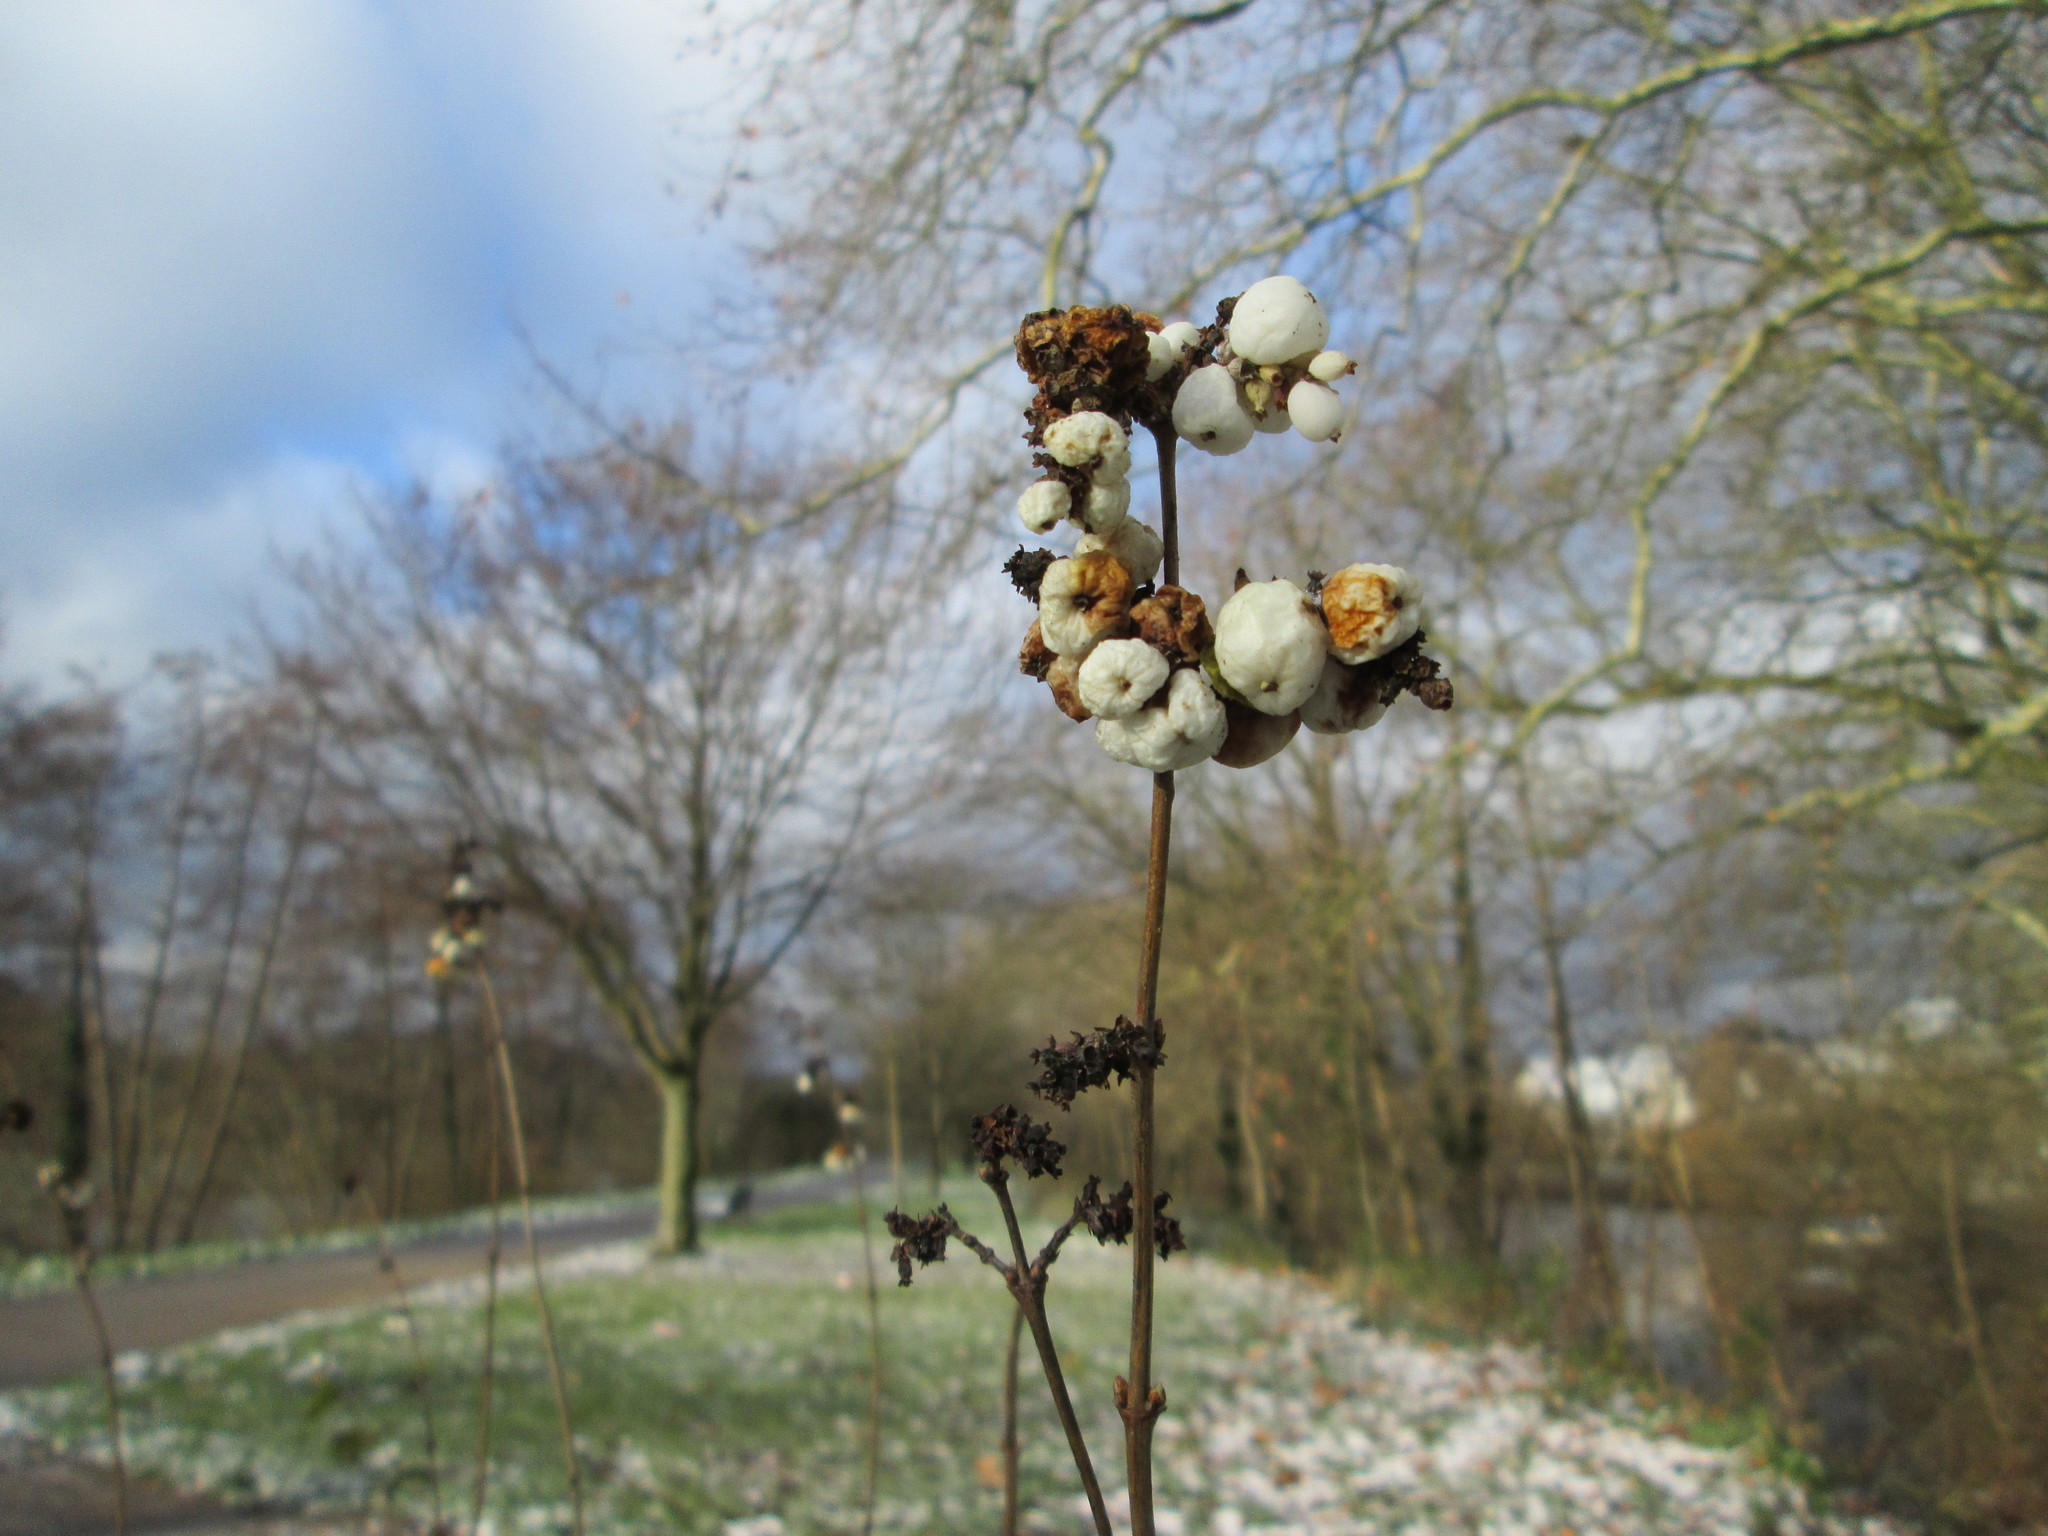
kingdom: Plantae
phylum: Tracheophyta
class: Magnoliopsida
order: Dipsacales
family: Caprifoliaceae
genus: Symphoricarpos
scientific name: Symphoricarpos albus
